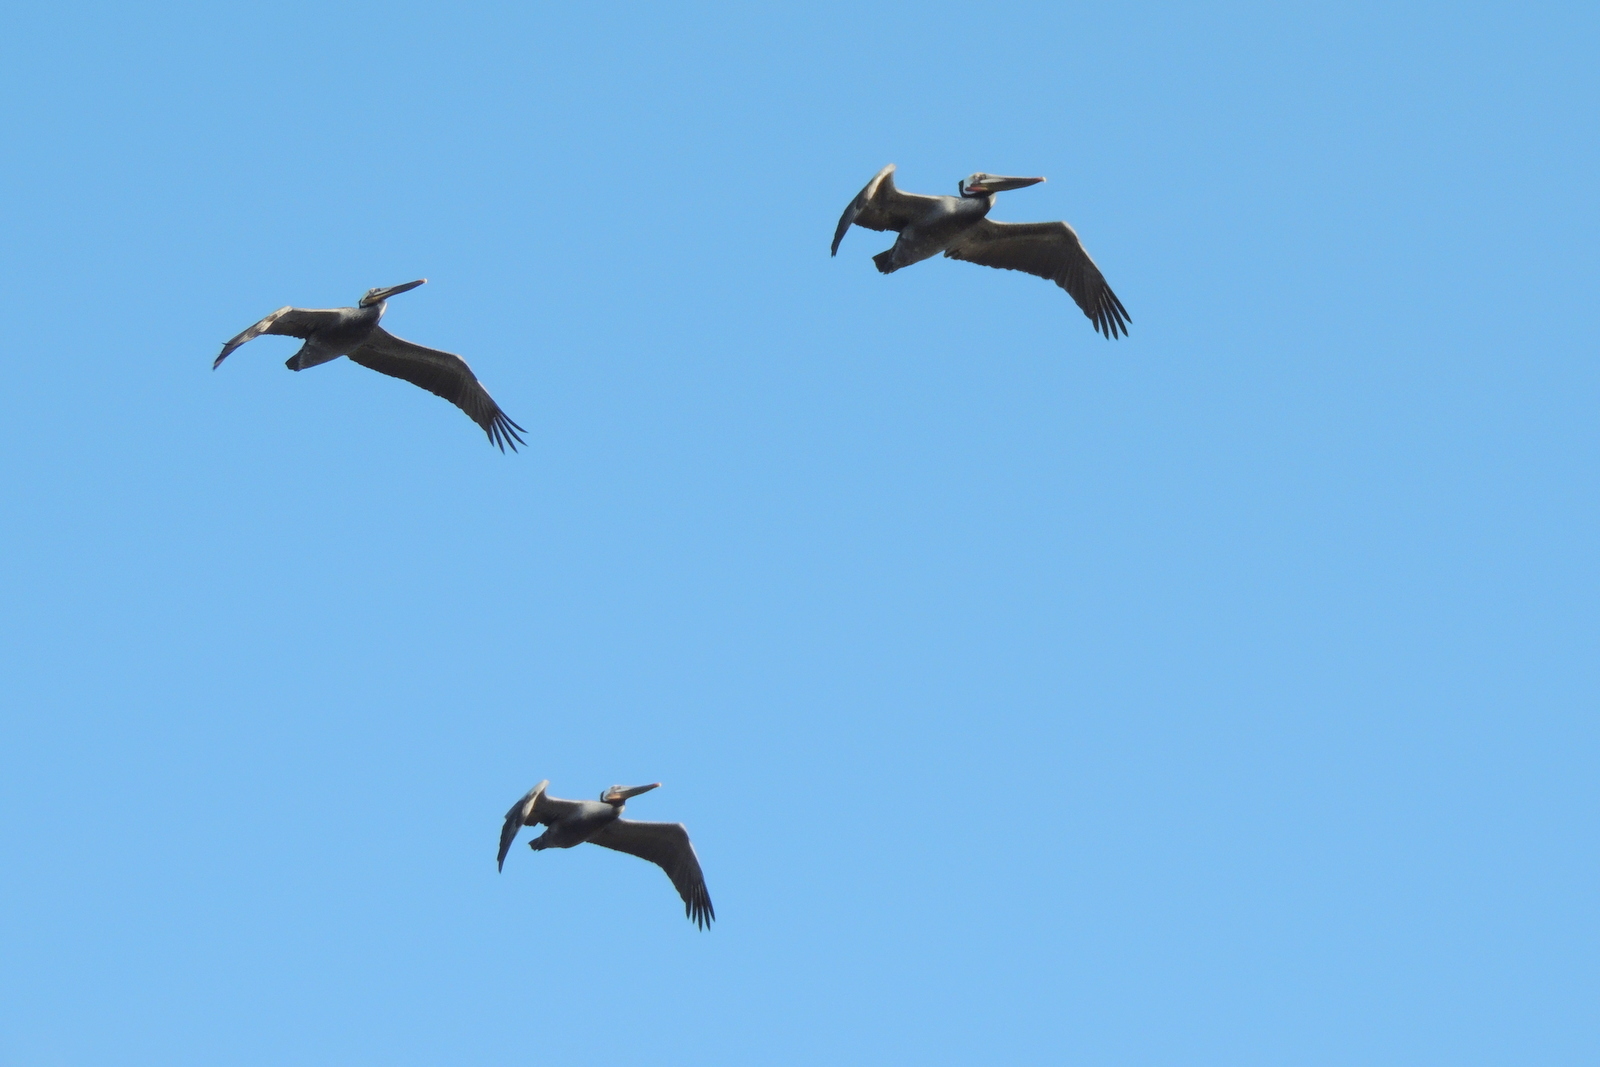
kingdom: Animalia
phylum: Chordata
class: Aves
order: Pelecaniformes
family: Pelecanidae
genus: Pelecanus
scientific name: Pelecanus occidentalis
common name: Brown pelican
